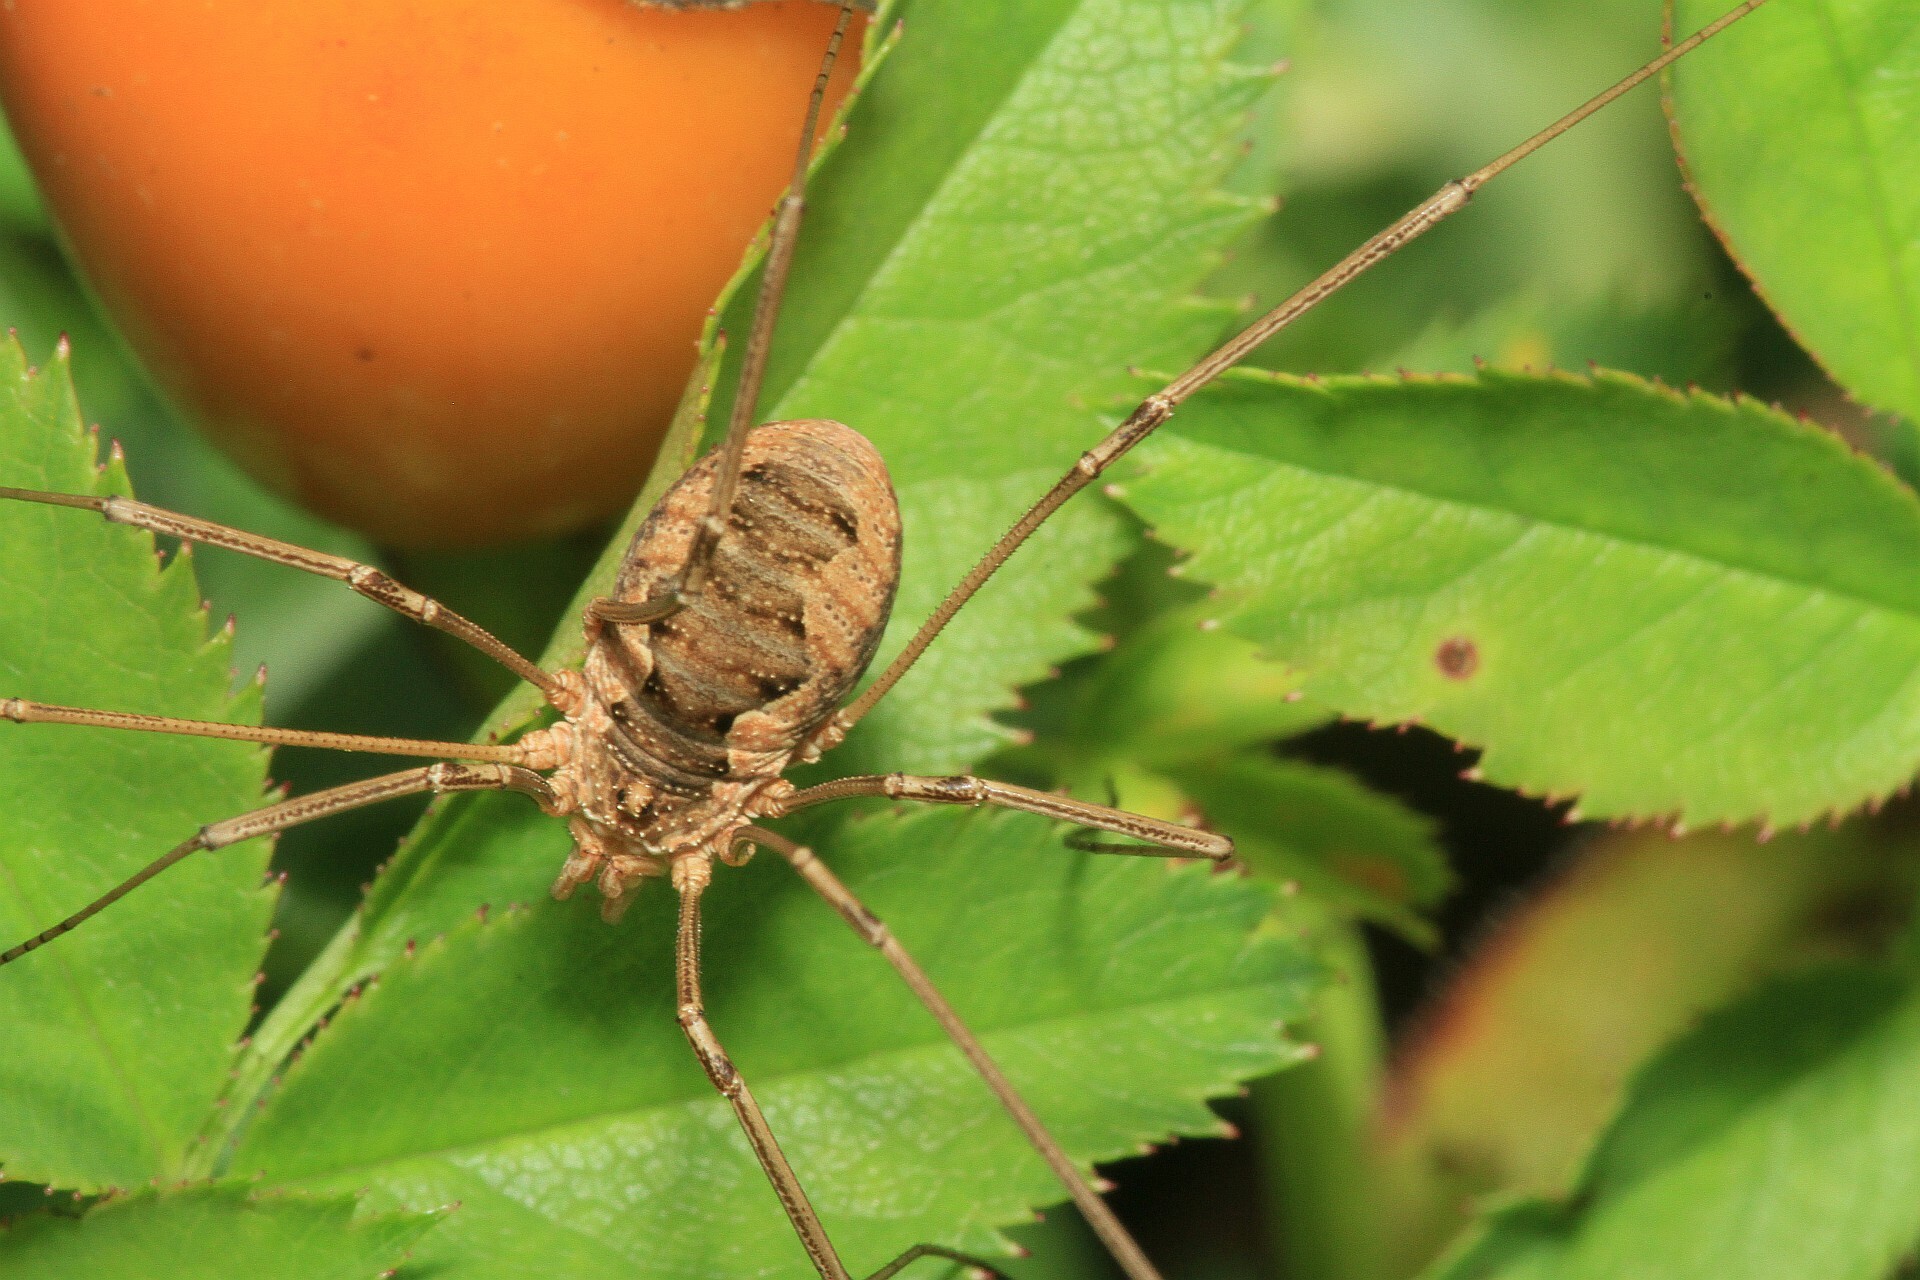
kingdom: Animalia
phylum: Arthropoda
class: Arachnida
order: Opiliones
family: Phalangiidae
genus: Phalangium
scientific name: Phalangium opilio
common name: Daddy longleg
